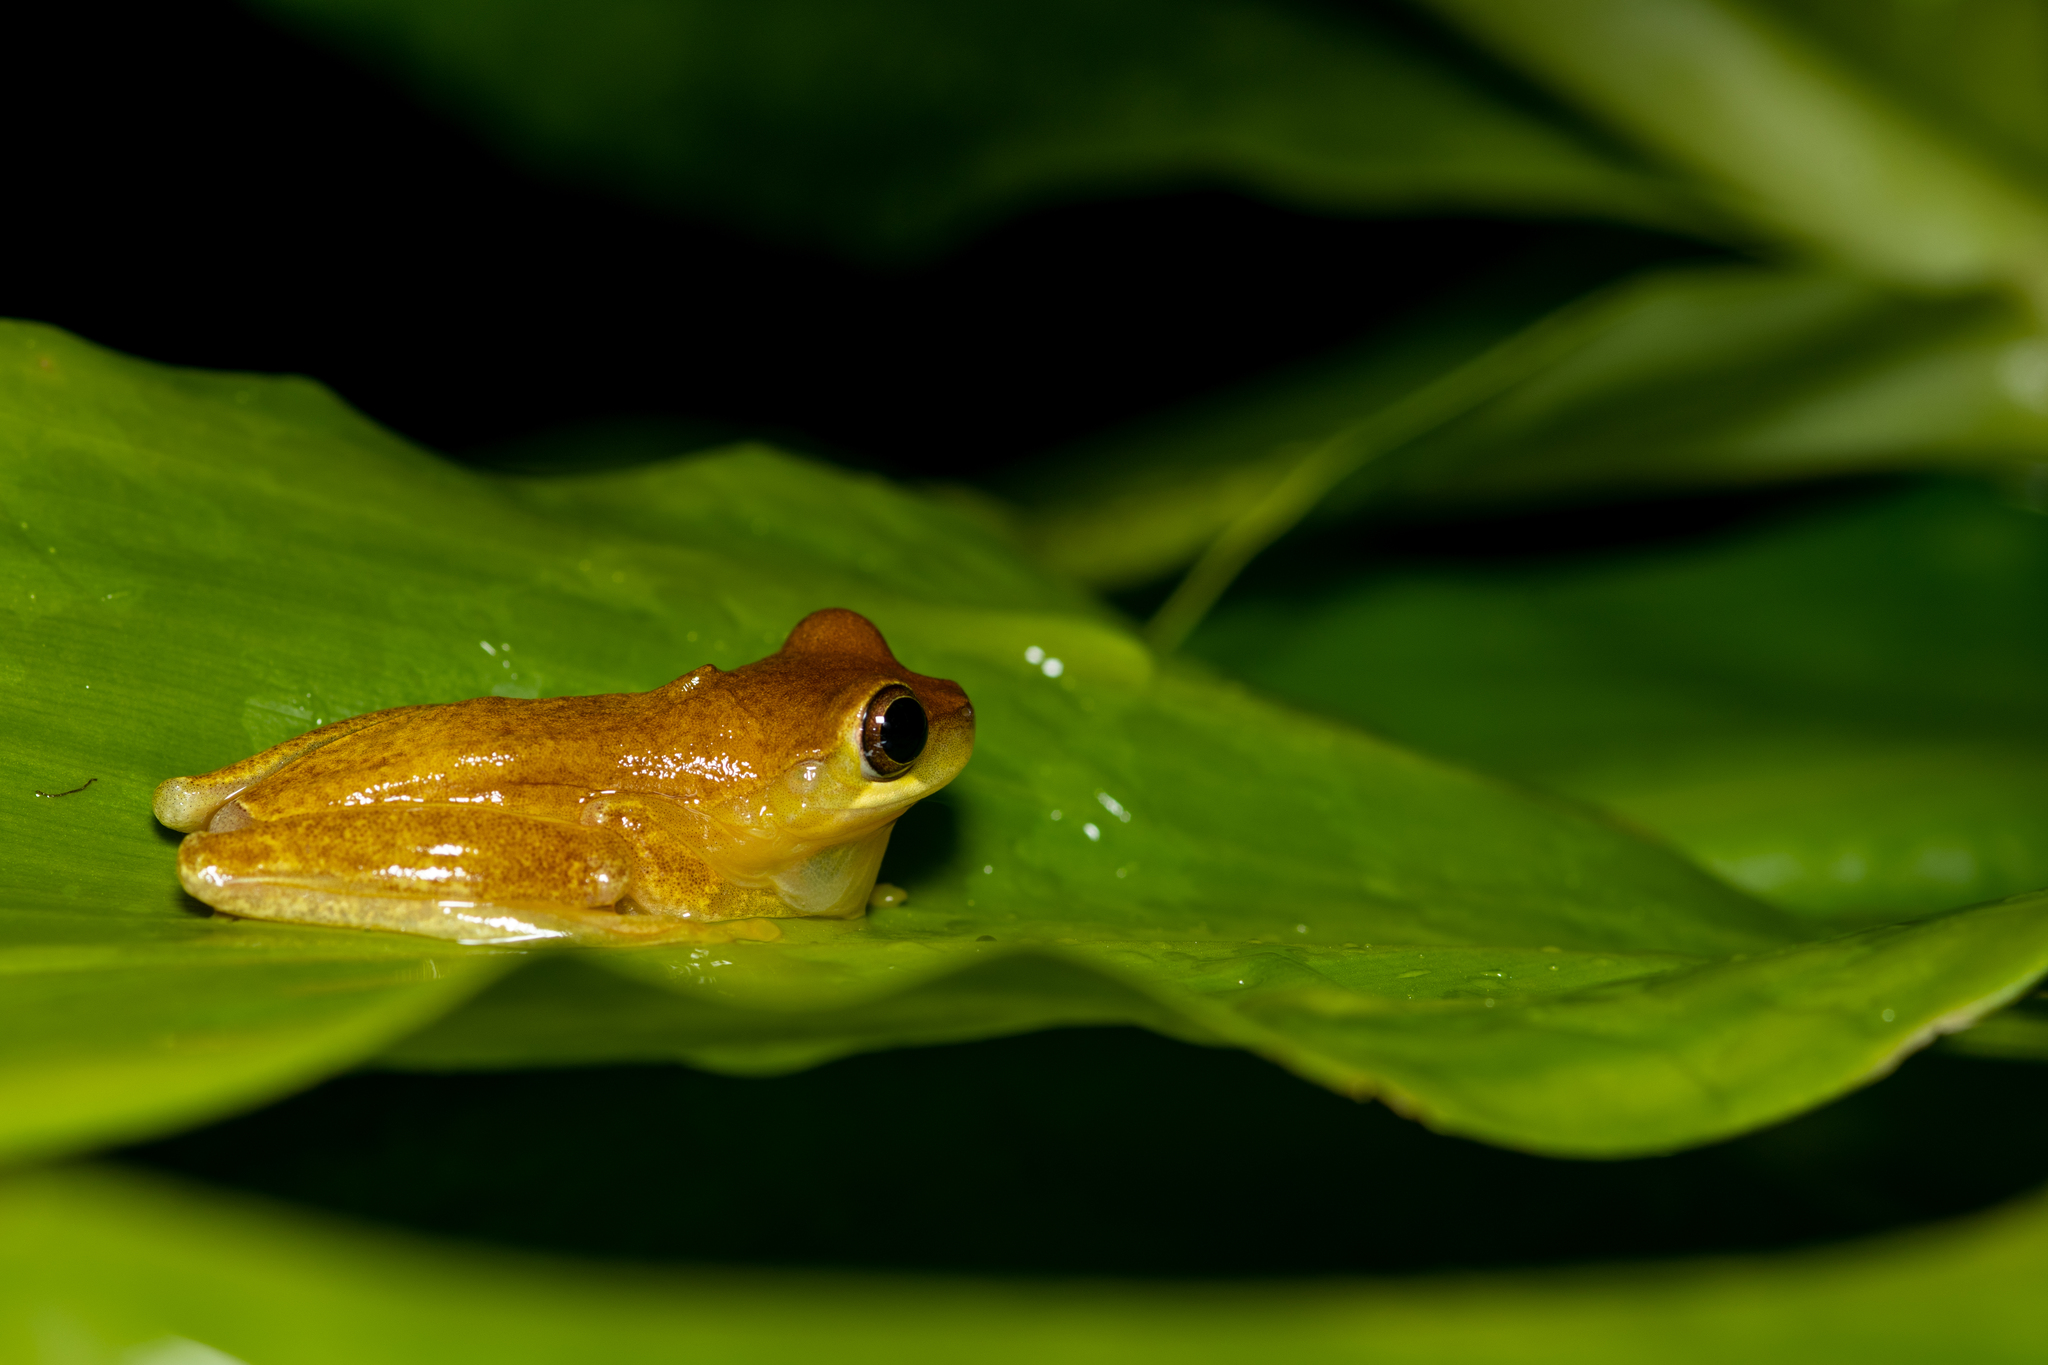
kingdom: Animalia
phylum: Chordata
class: Amphibia
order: Anura
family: Hylidae
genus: Dendropsophus
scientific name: Dendropsophus ebraccatus
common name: Hourglass treefrog
